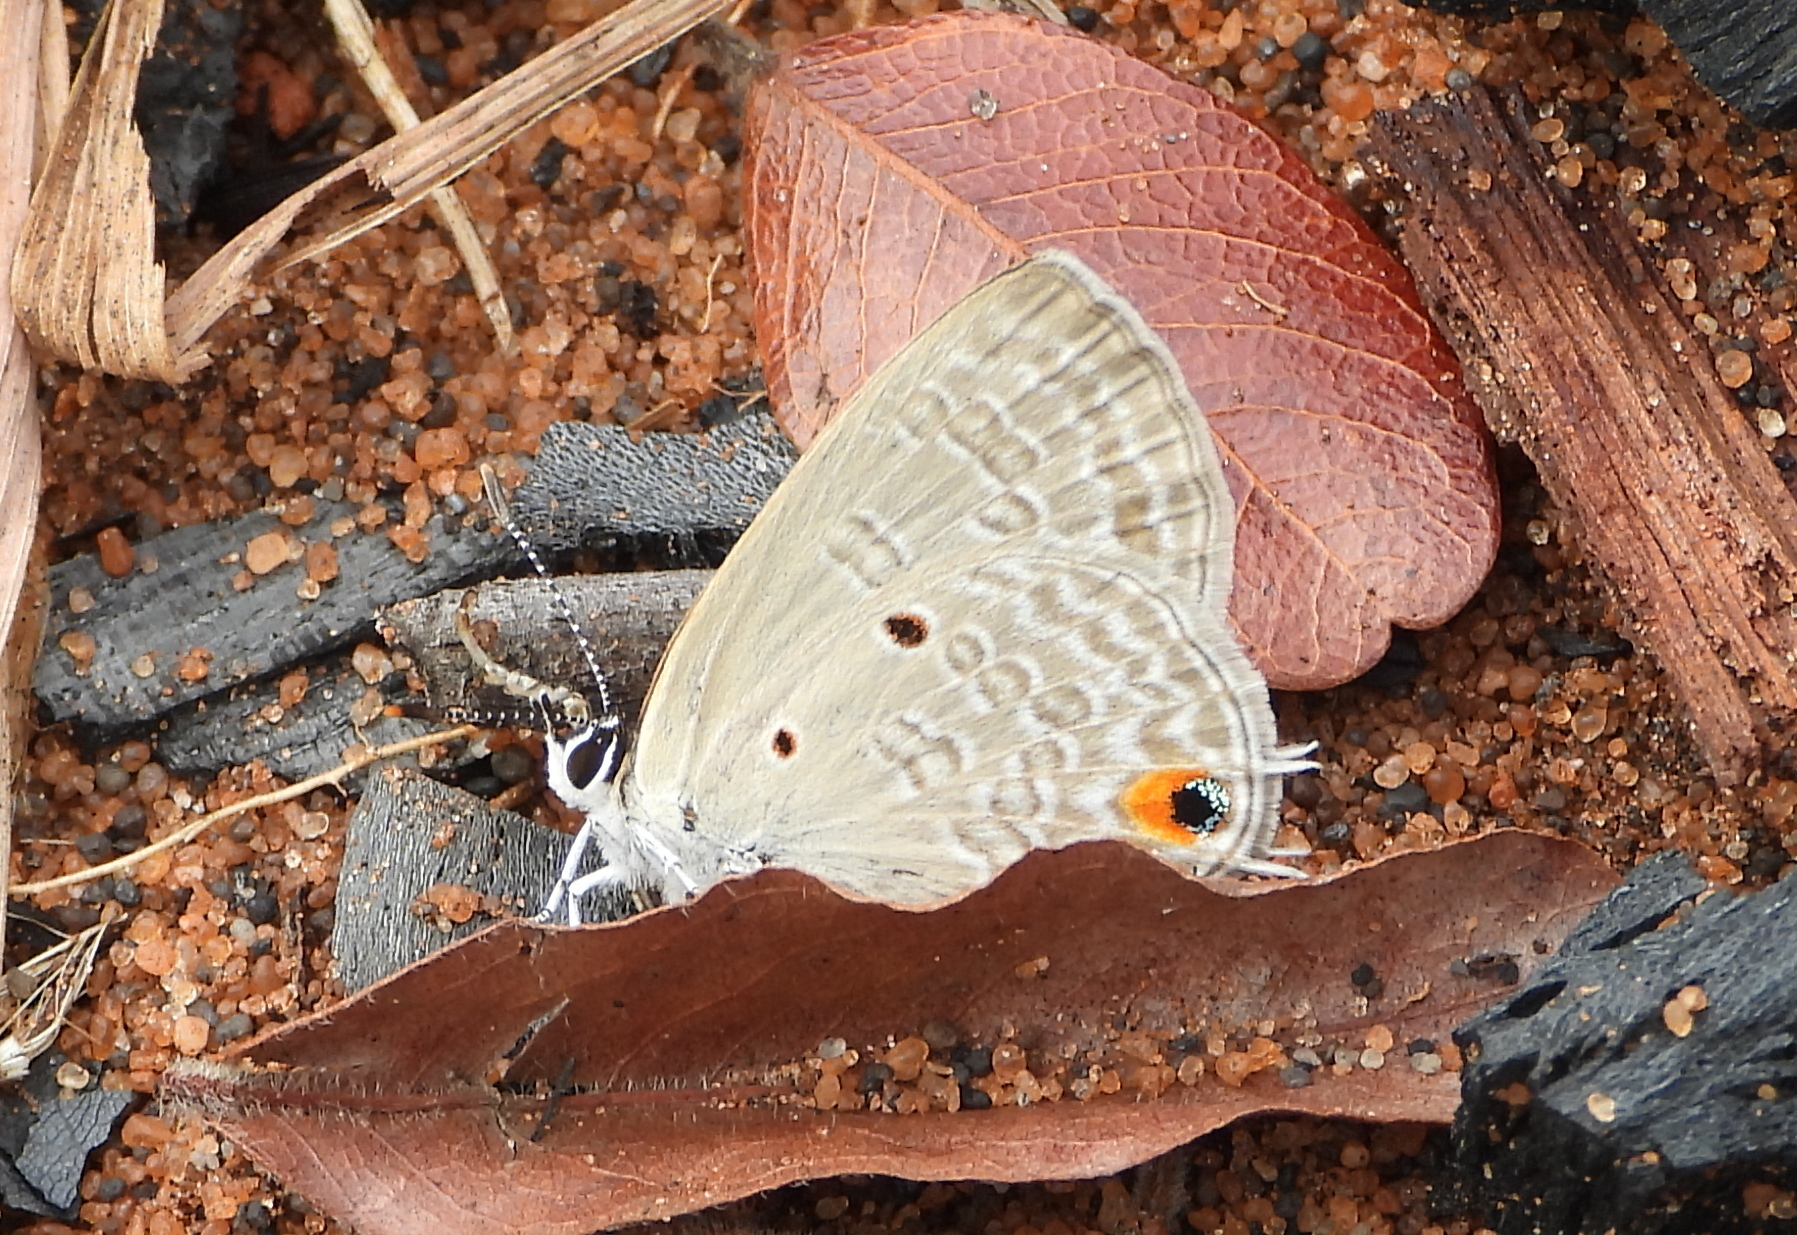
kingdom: Animalia
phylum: Arthropoda
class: Insecta
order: Lepidoptera
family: Lycaenidae
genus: Anthene
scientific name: Anthene lunulata
